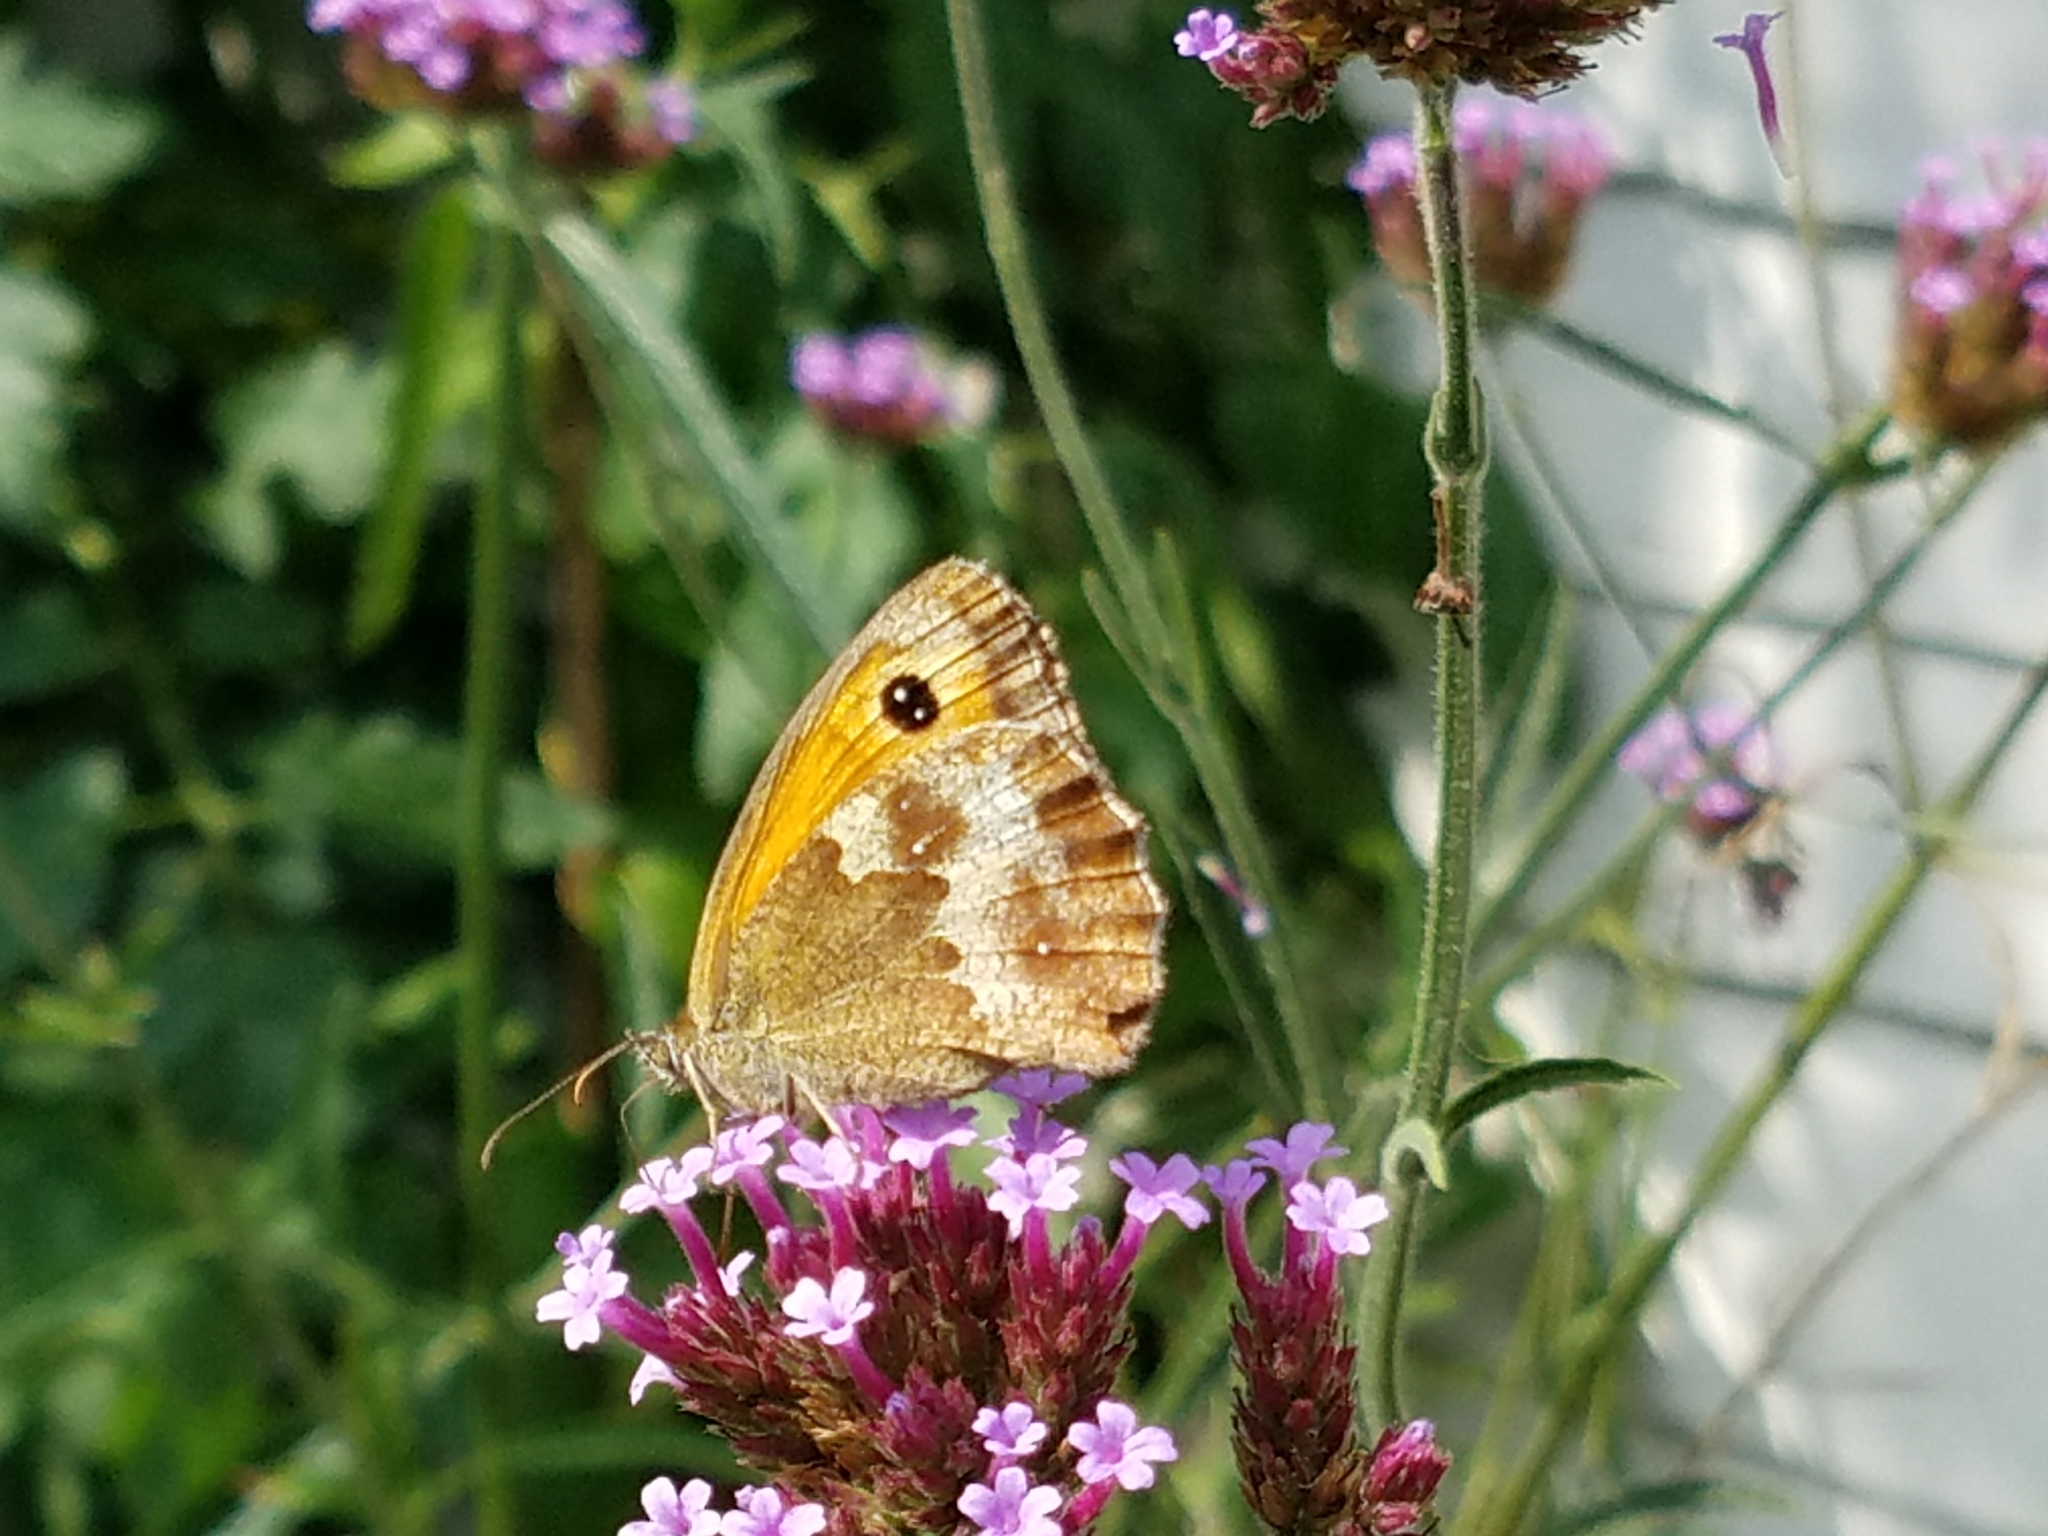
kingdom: Animalia
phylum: Arthropoda
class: Insecta
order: Lepidoptera
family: Nymphalidae
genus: Pyronia
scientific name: Pyronia tithonus
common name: Gatekeeper
